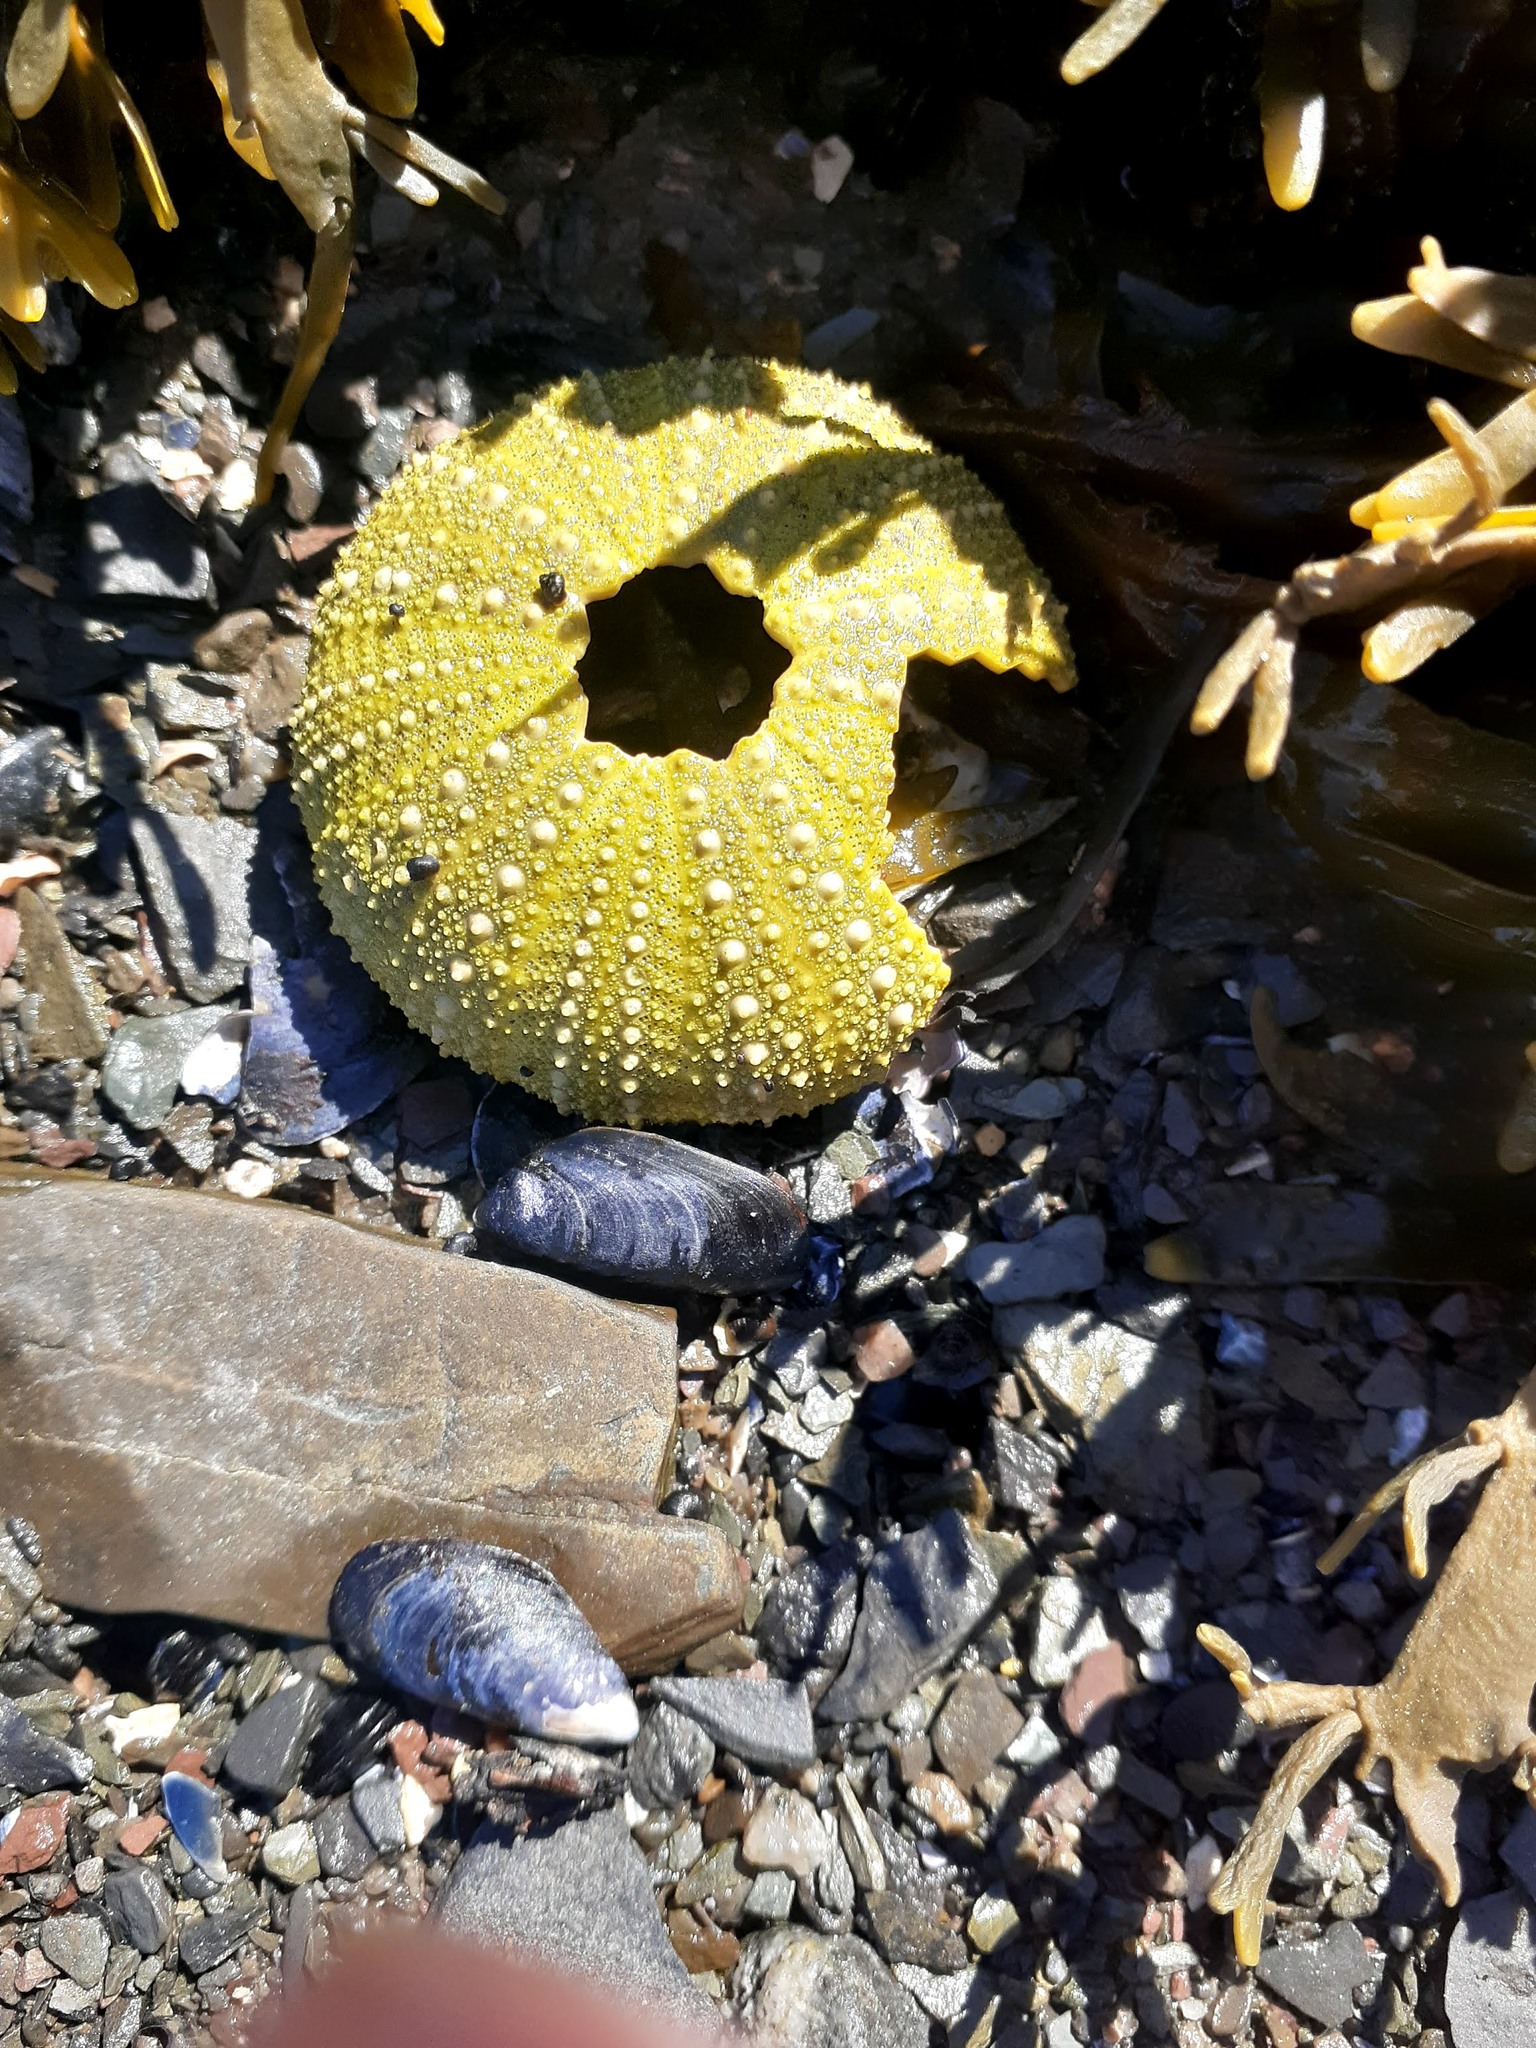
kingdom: Animalia
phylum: Echinodermata
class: Echinoidea
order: Camarodonta
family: Strongylocentrotidae
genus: Strongylocentrotus
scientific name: Strongylocentrotus droebachiensis
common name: Northern sea urchin
